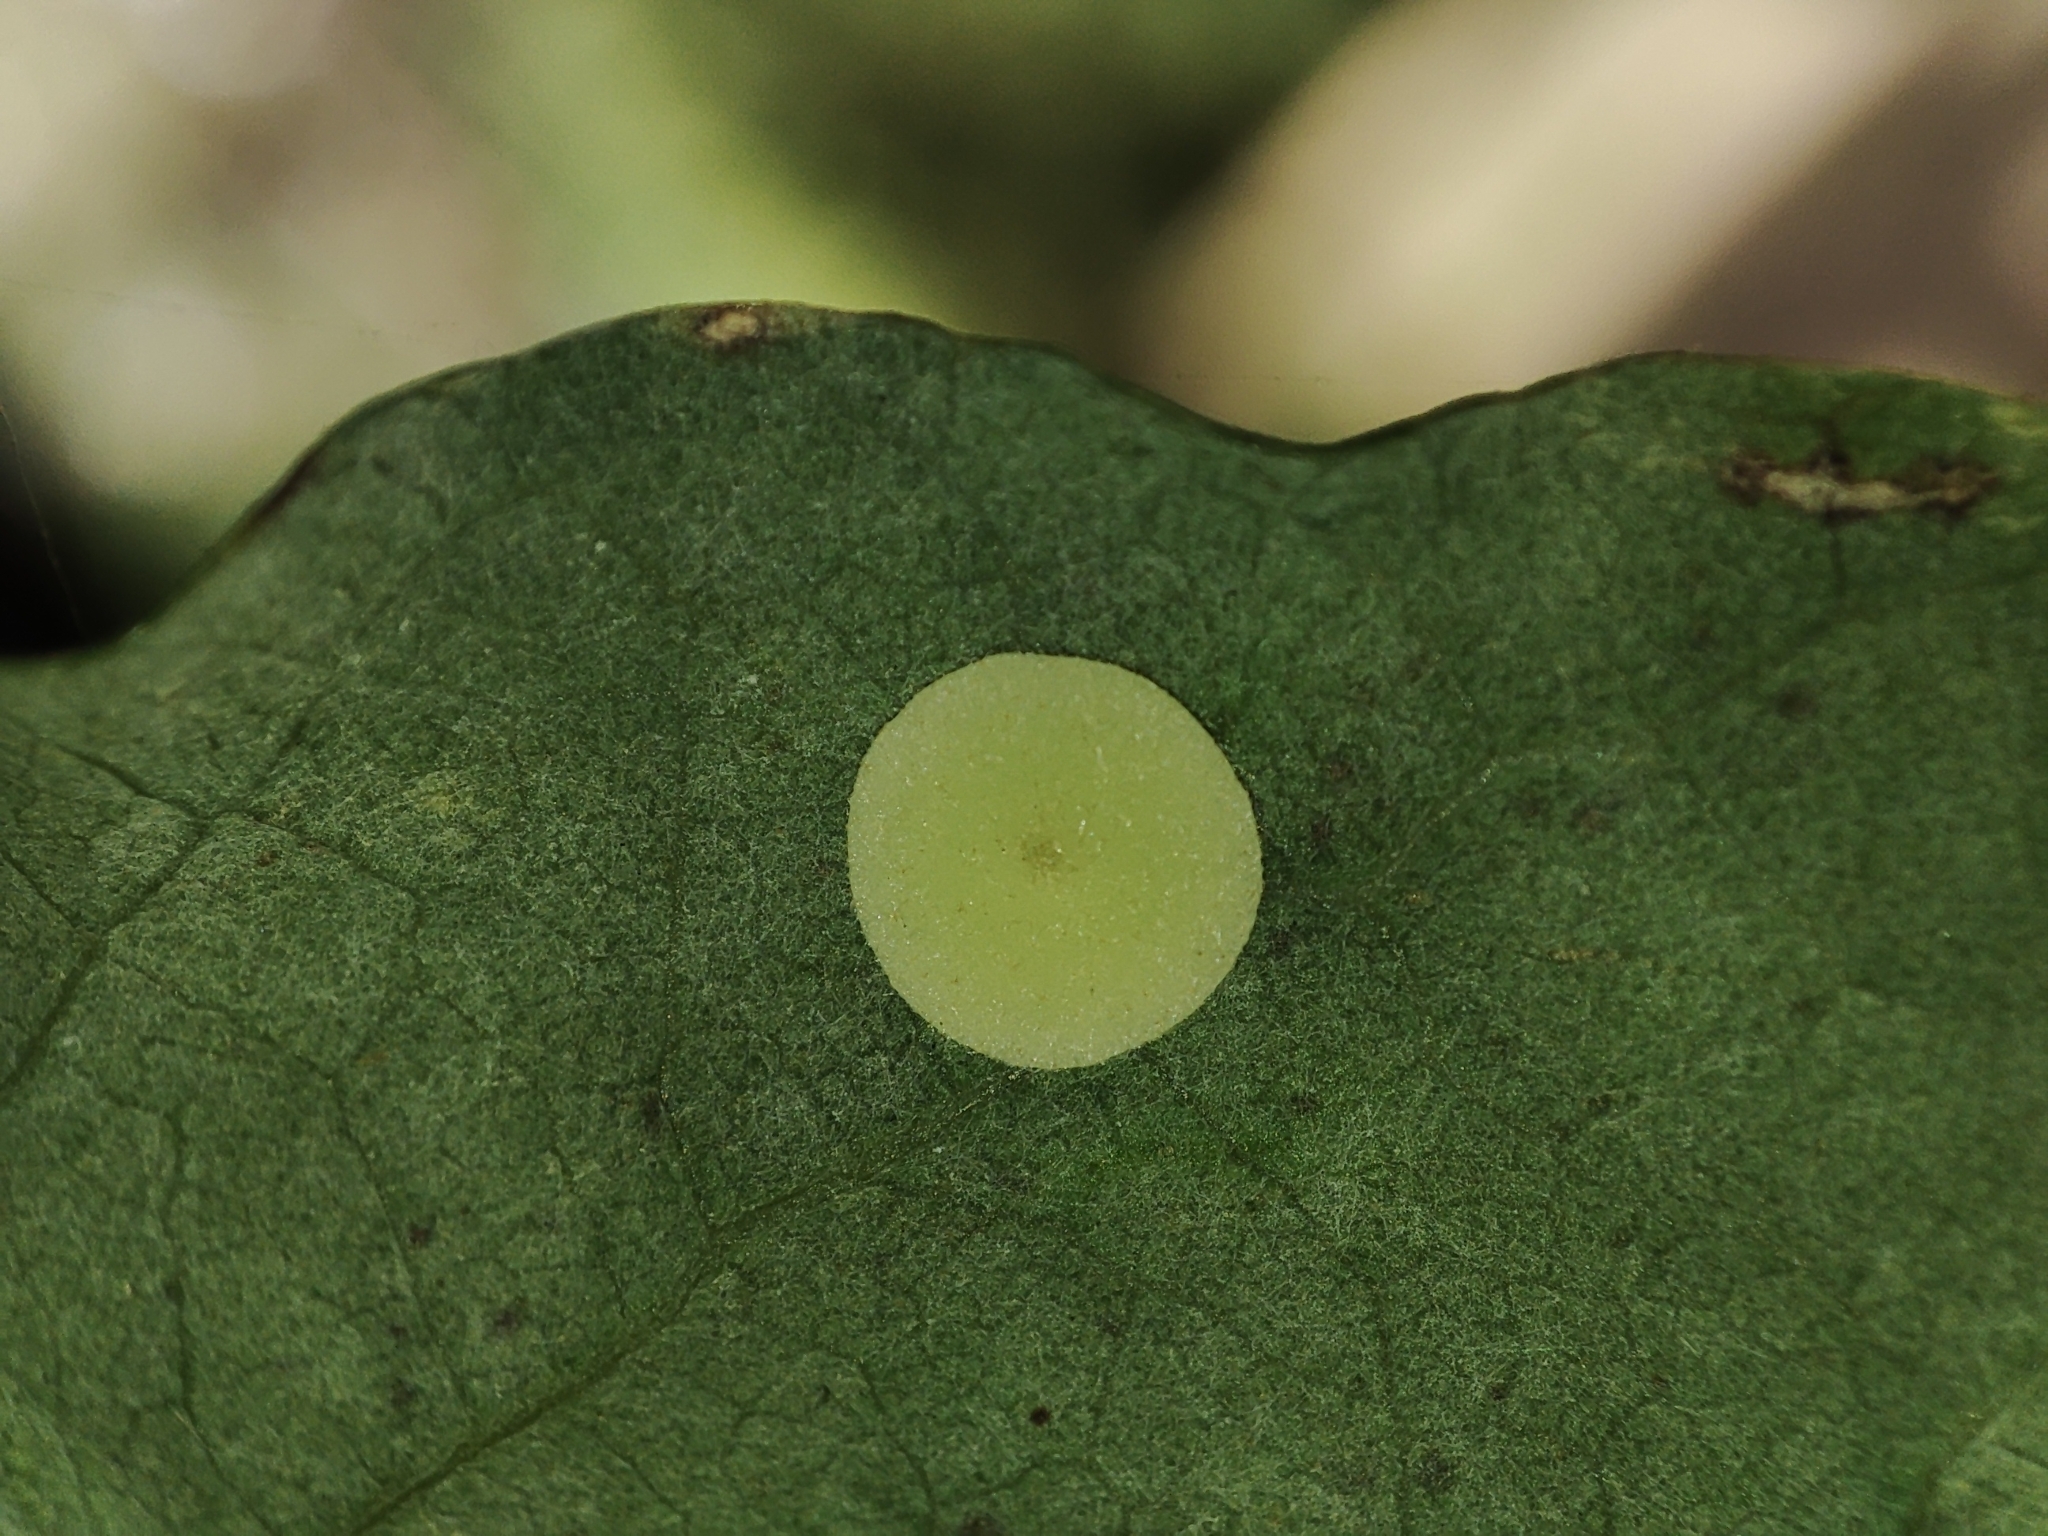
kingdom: Animalia
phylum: Arthropoda
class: Insecta
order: Hymenoptera
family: Cynipidae
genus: Neuroterus
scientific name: Neuroterus albipes
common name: Smooth spangle gall
